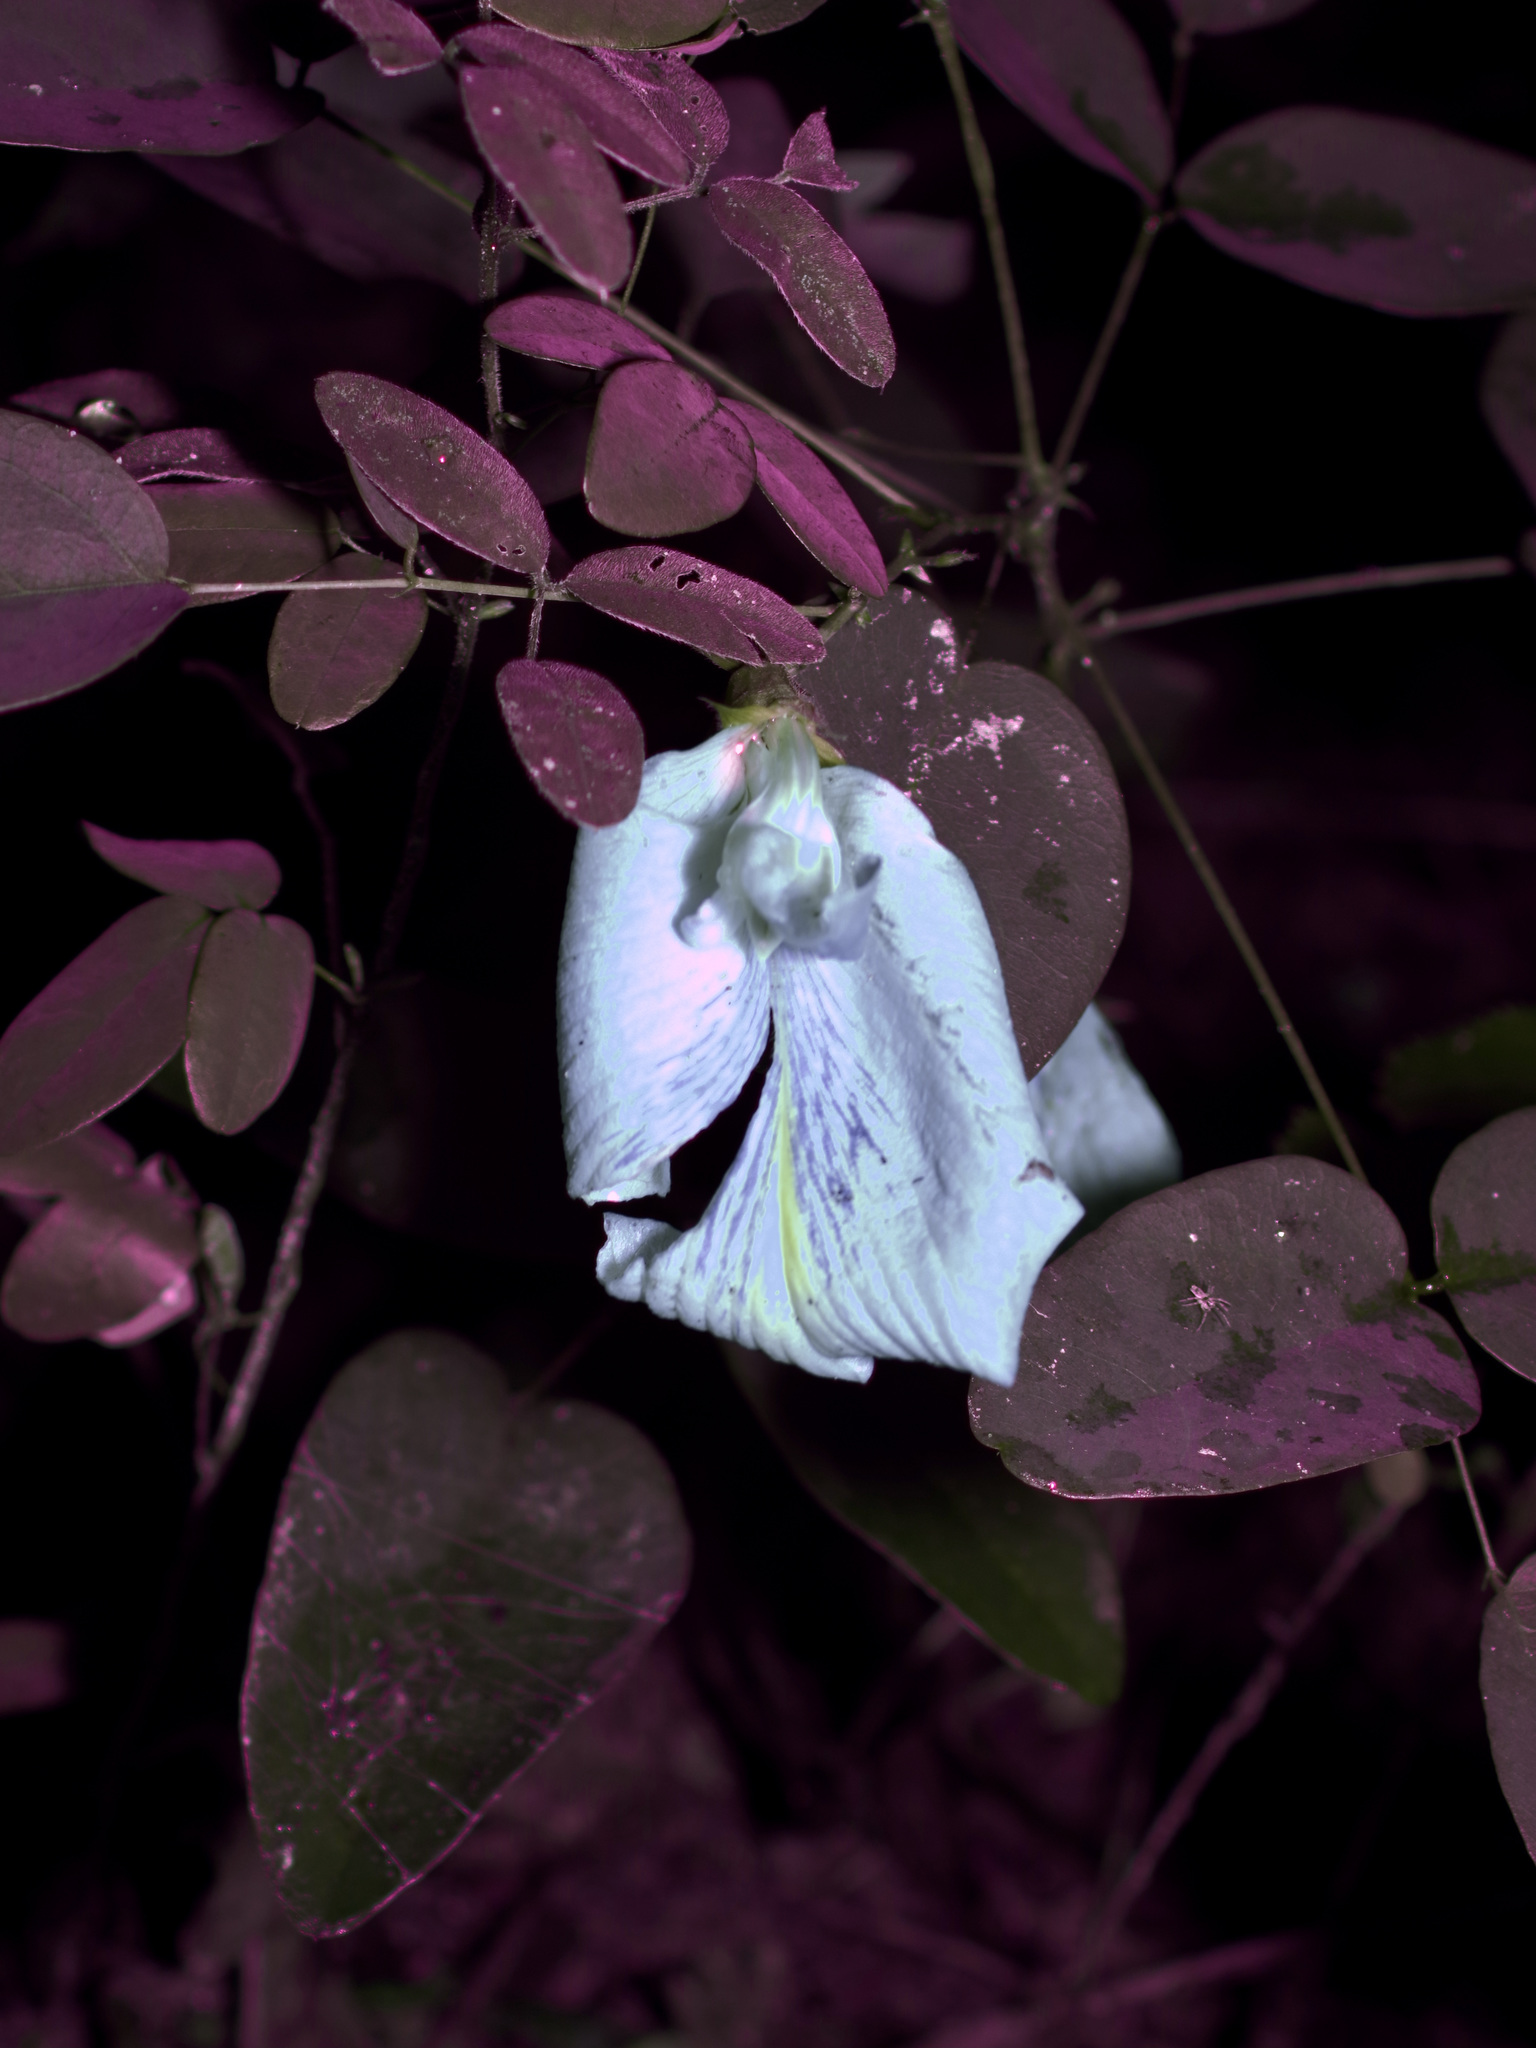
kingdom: Plantae
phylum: Tracheophyta
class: Magnoliopsida
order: Fabales
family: Fabaceae
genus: Clitoria
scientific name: Clitoria mariana
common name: Butterfly-pea
